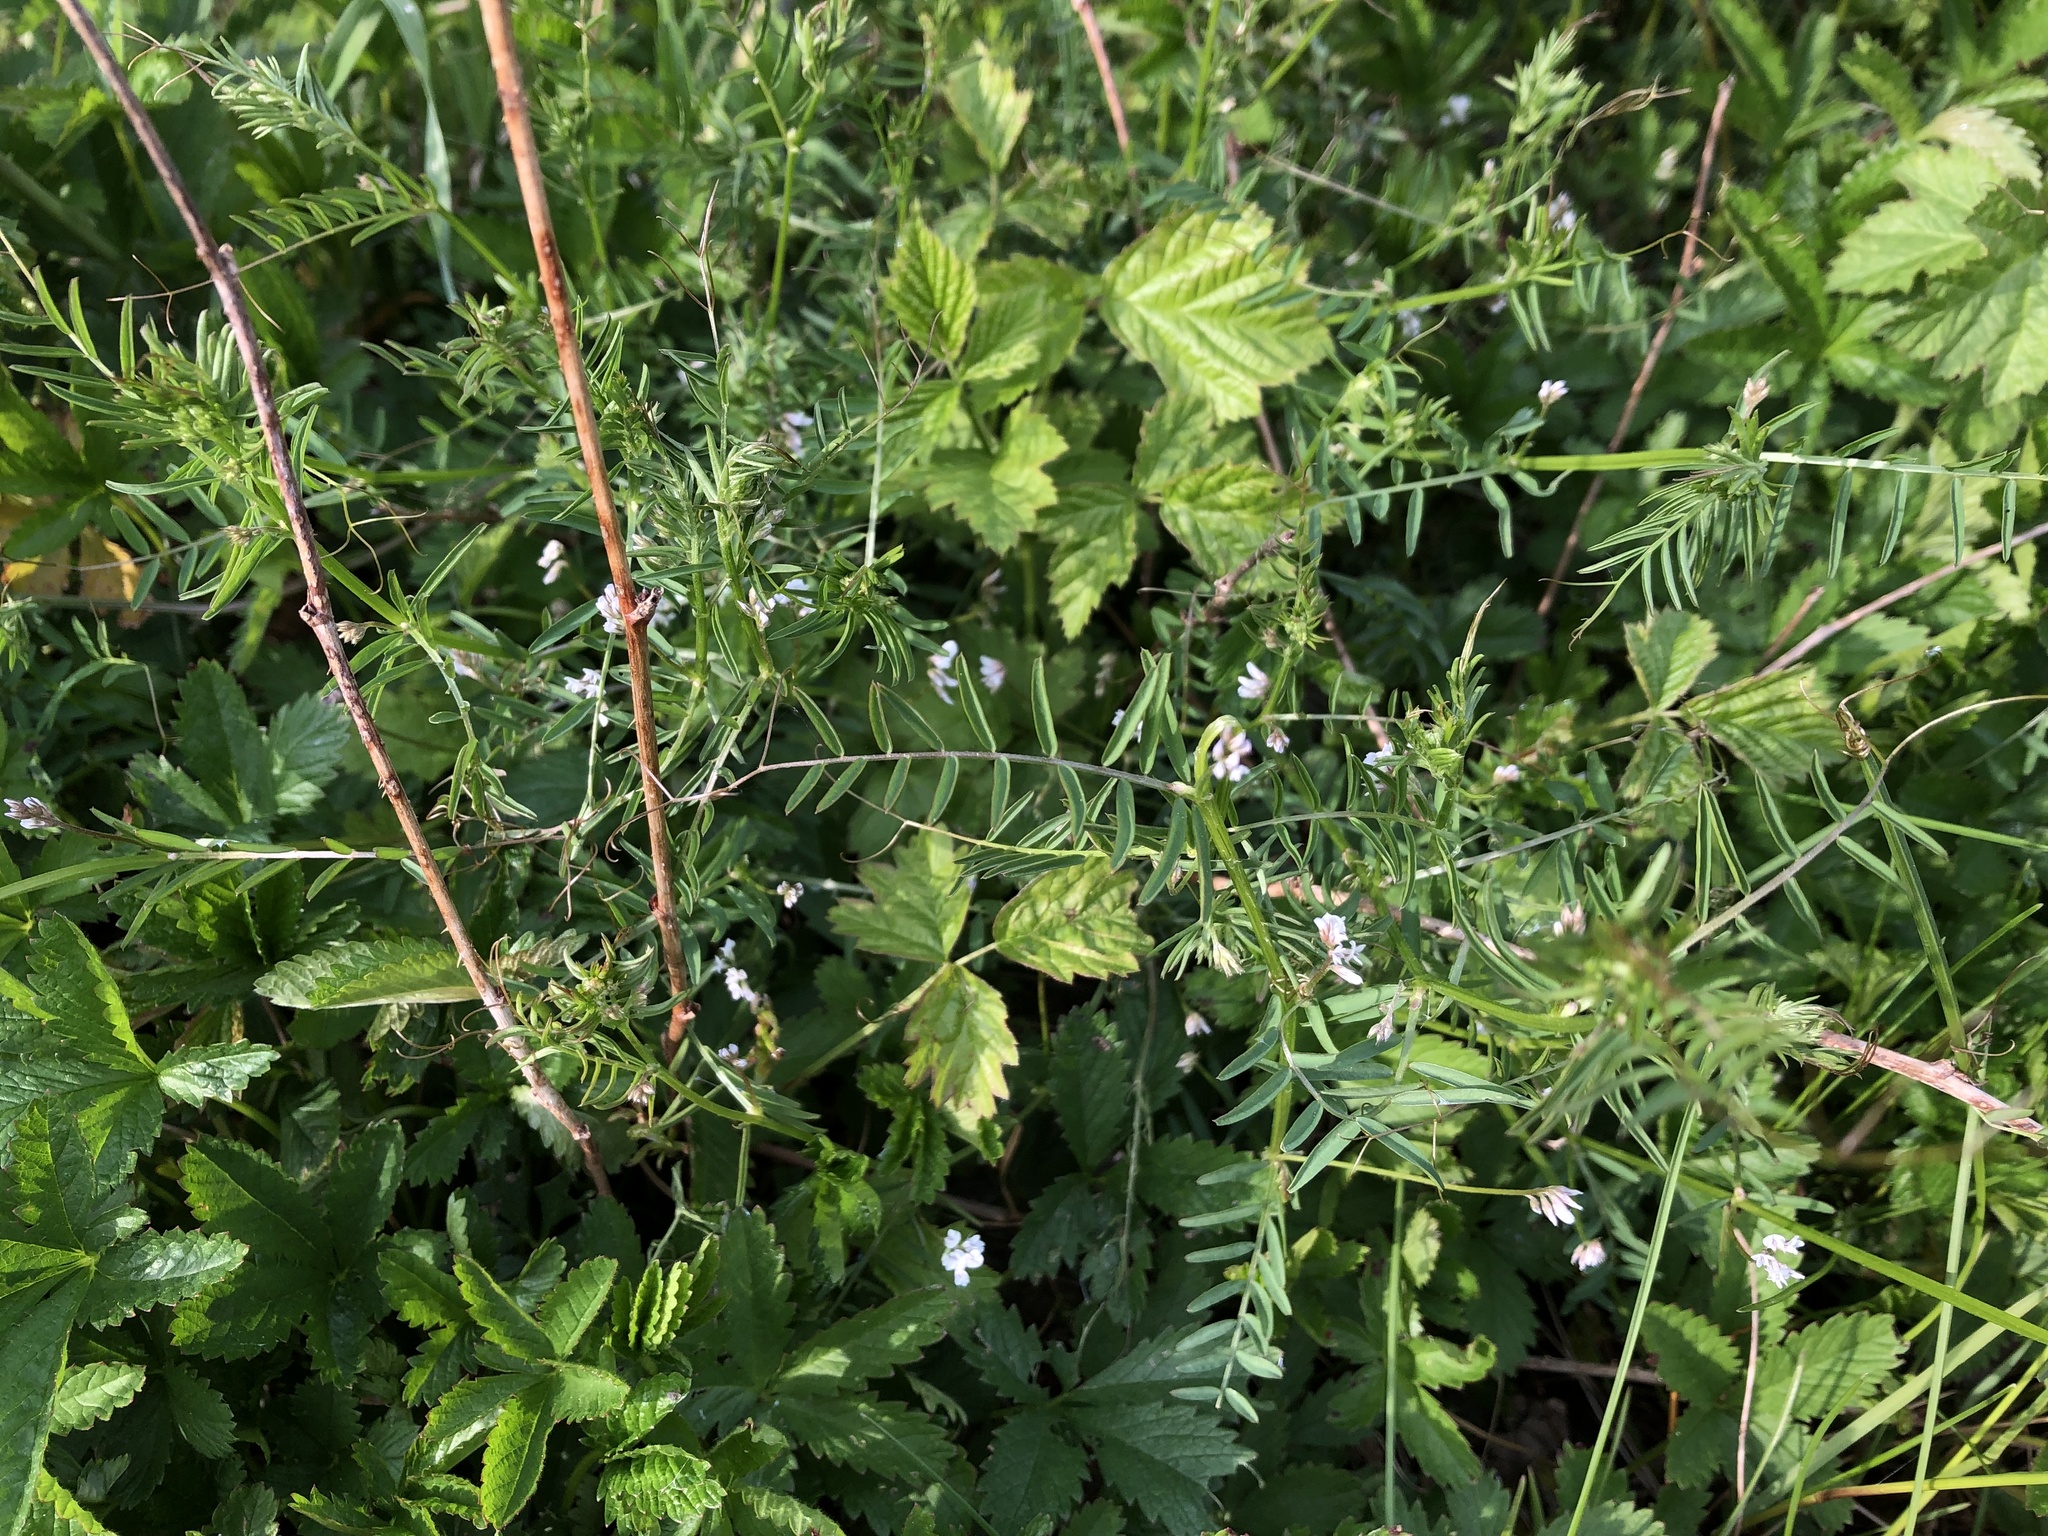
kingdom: Plantae
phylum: Tracheophyta
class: Magnoliopsida
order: Fabales
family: Fabaceae
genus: Vicia
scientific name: Vicia hirsuta
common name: Tiny vetch
